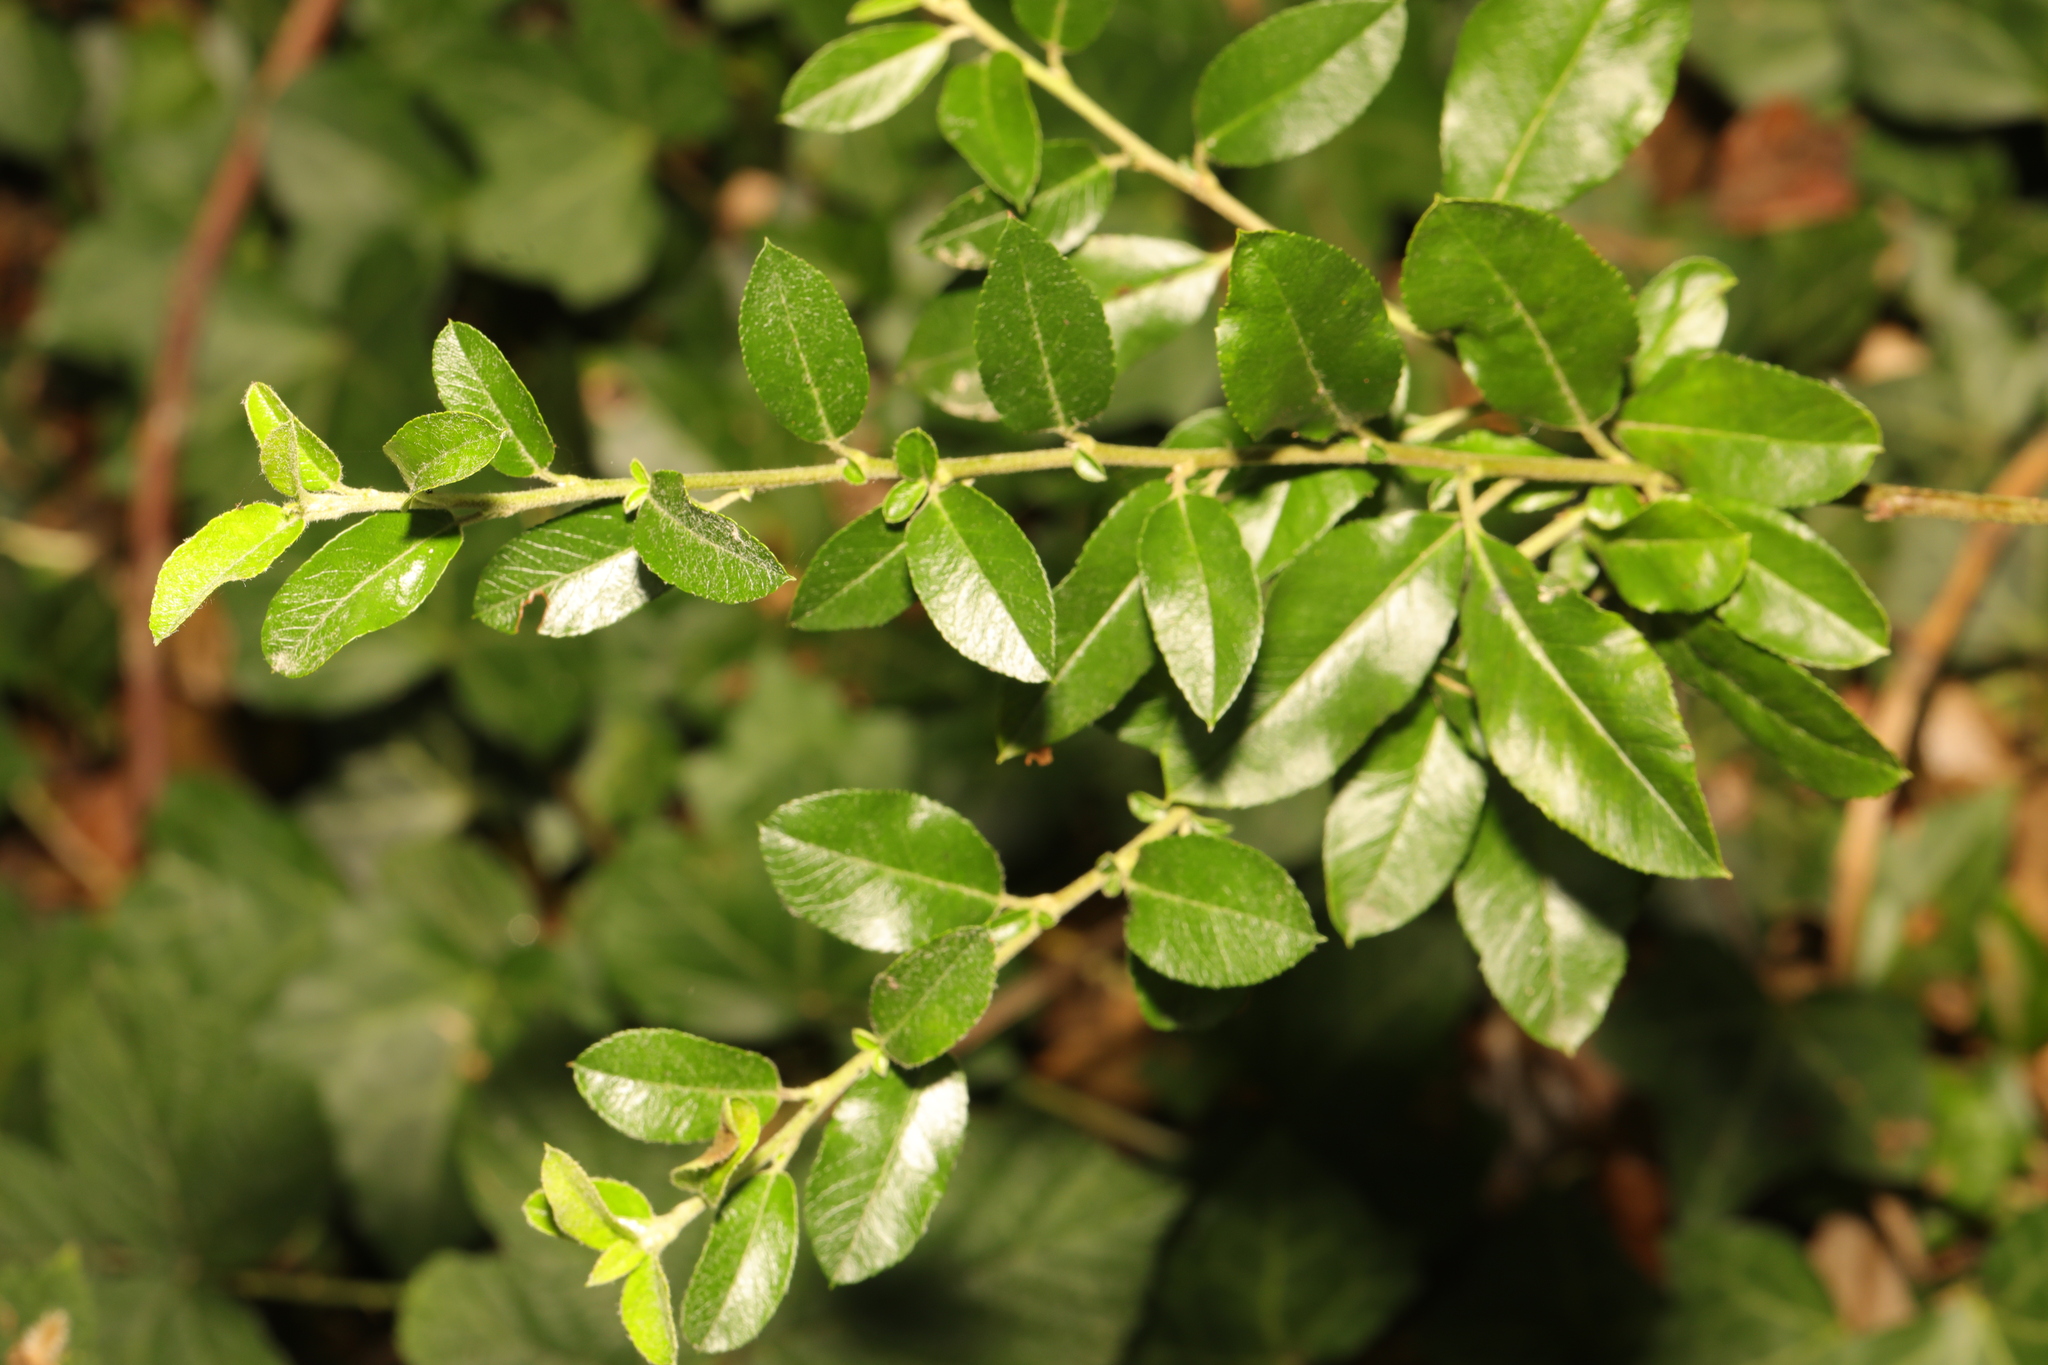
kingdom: Plantae
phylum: Tracheophyta
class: Magnoliopsida
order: Rosales
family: Rosaceae
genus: Pyracantha
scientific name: Pyracantha coccinea
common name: Firethorn
